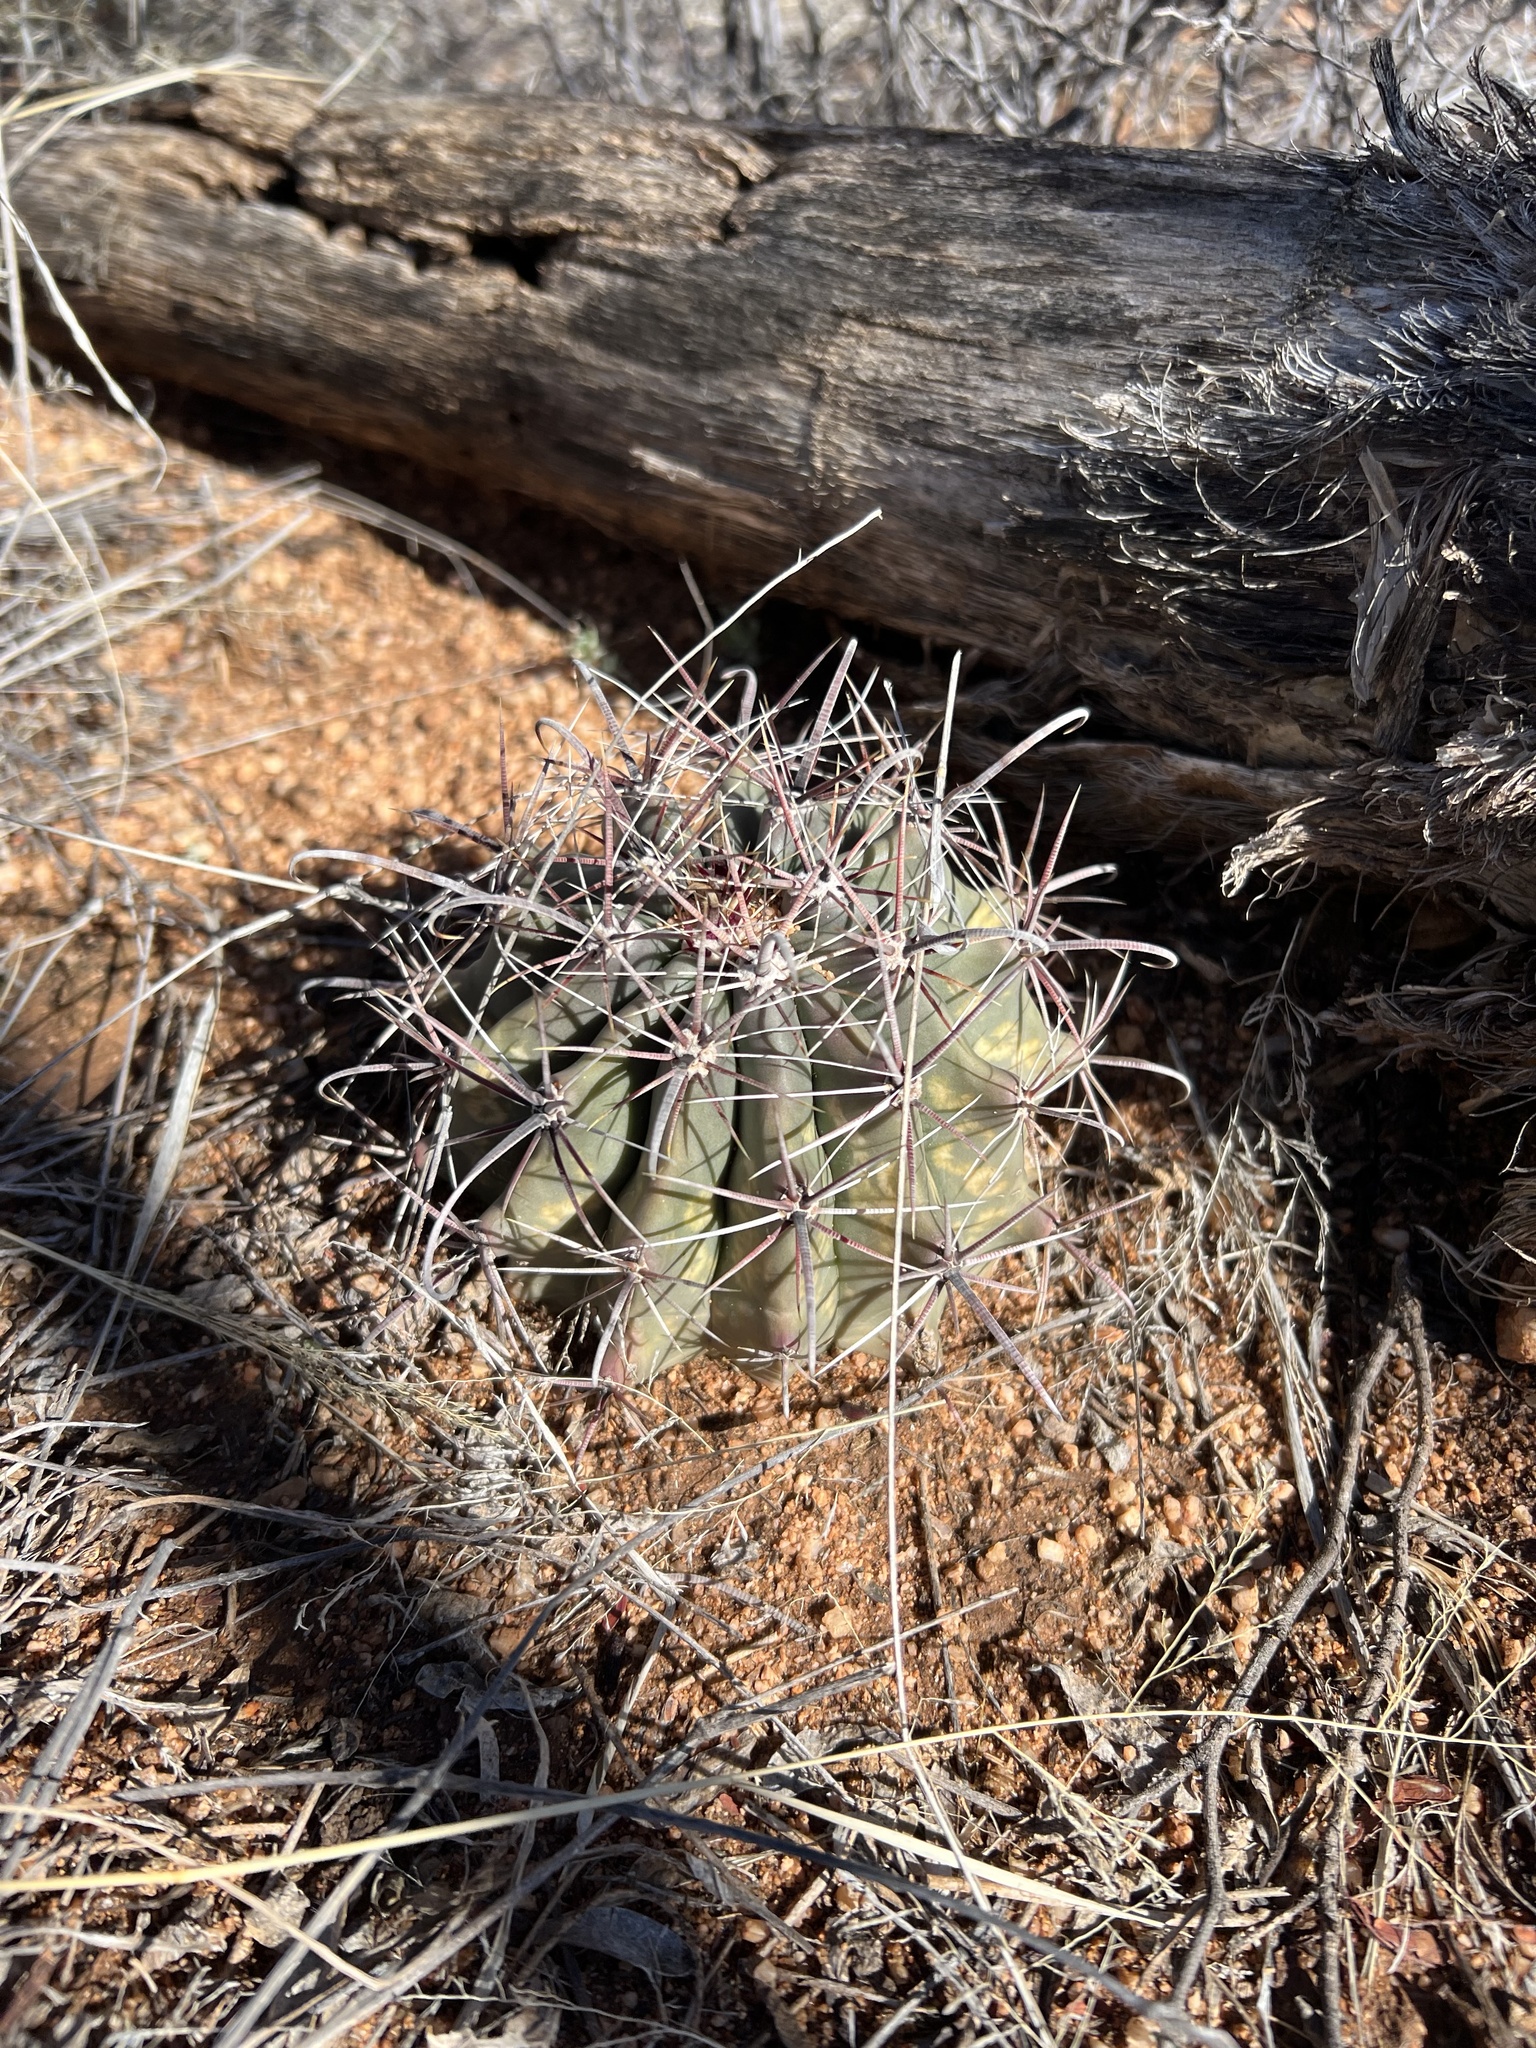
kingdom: Plantae
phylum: Tracheophyta
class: Magnoliopsida
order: Caryophyllales
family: Cactaceae
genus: Ferocactus
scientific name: Ferocactus wislizeni
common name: Candy barrel cactus
